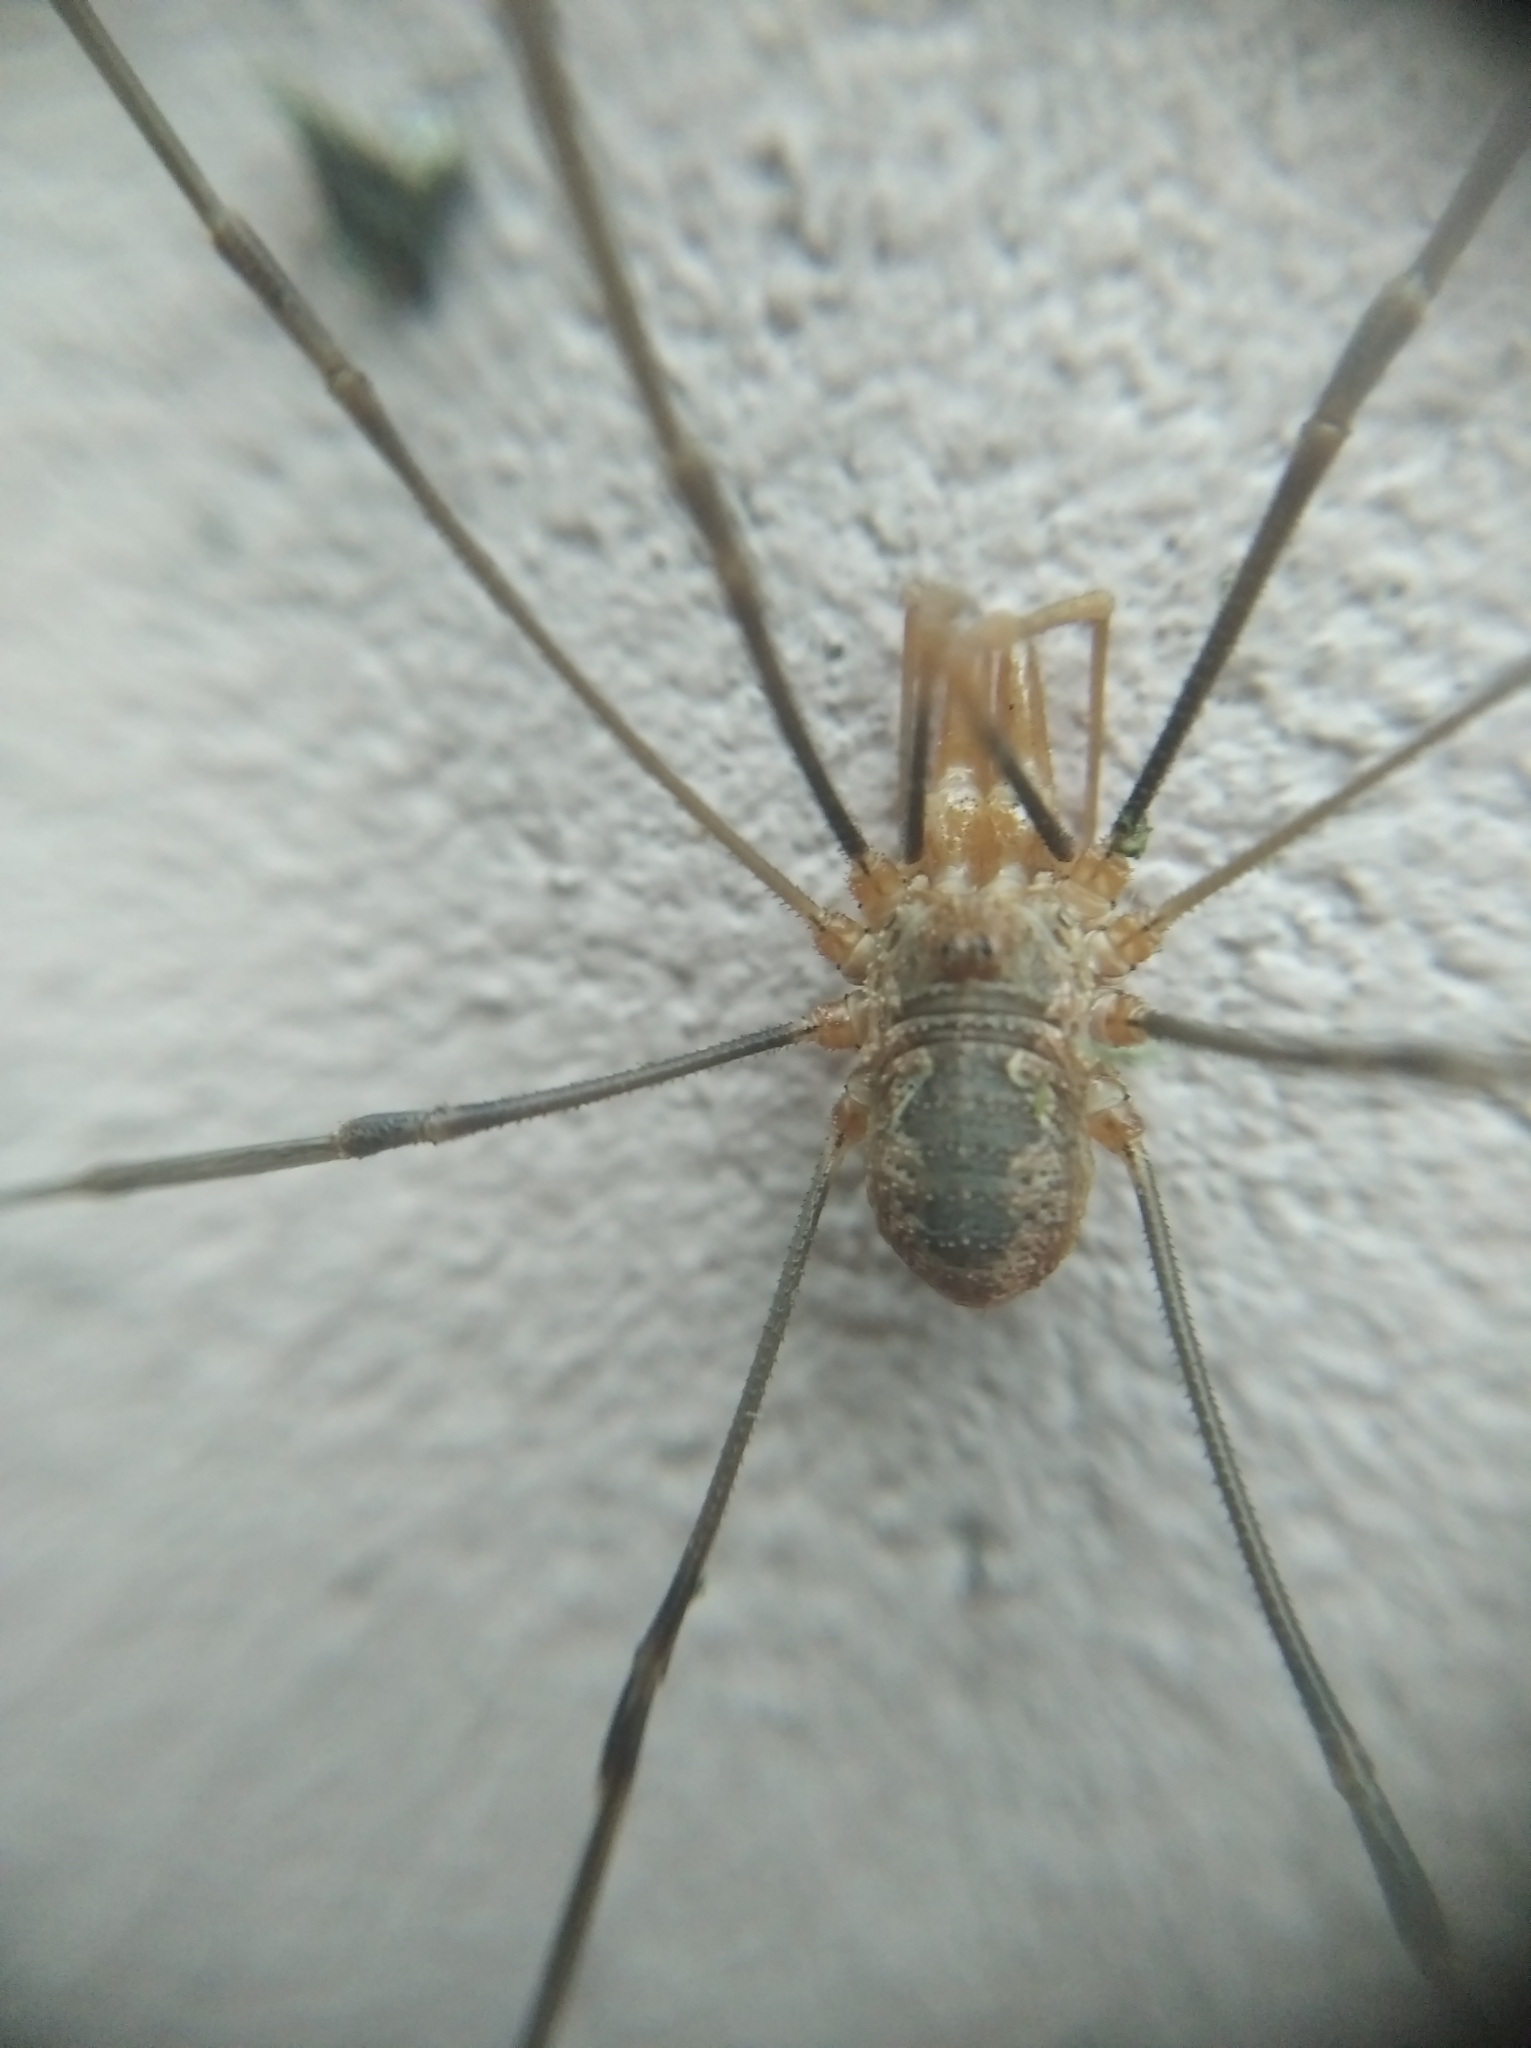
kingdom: Animalia
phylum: Arthropoda
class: Arachnida
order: Opiliones
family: Phalangiidae
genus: Phalangium
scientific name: Phalangium opilio
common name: Daddy longleg
